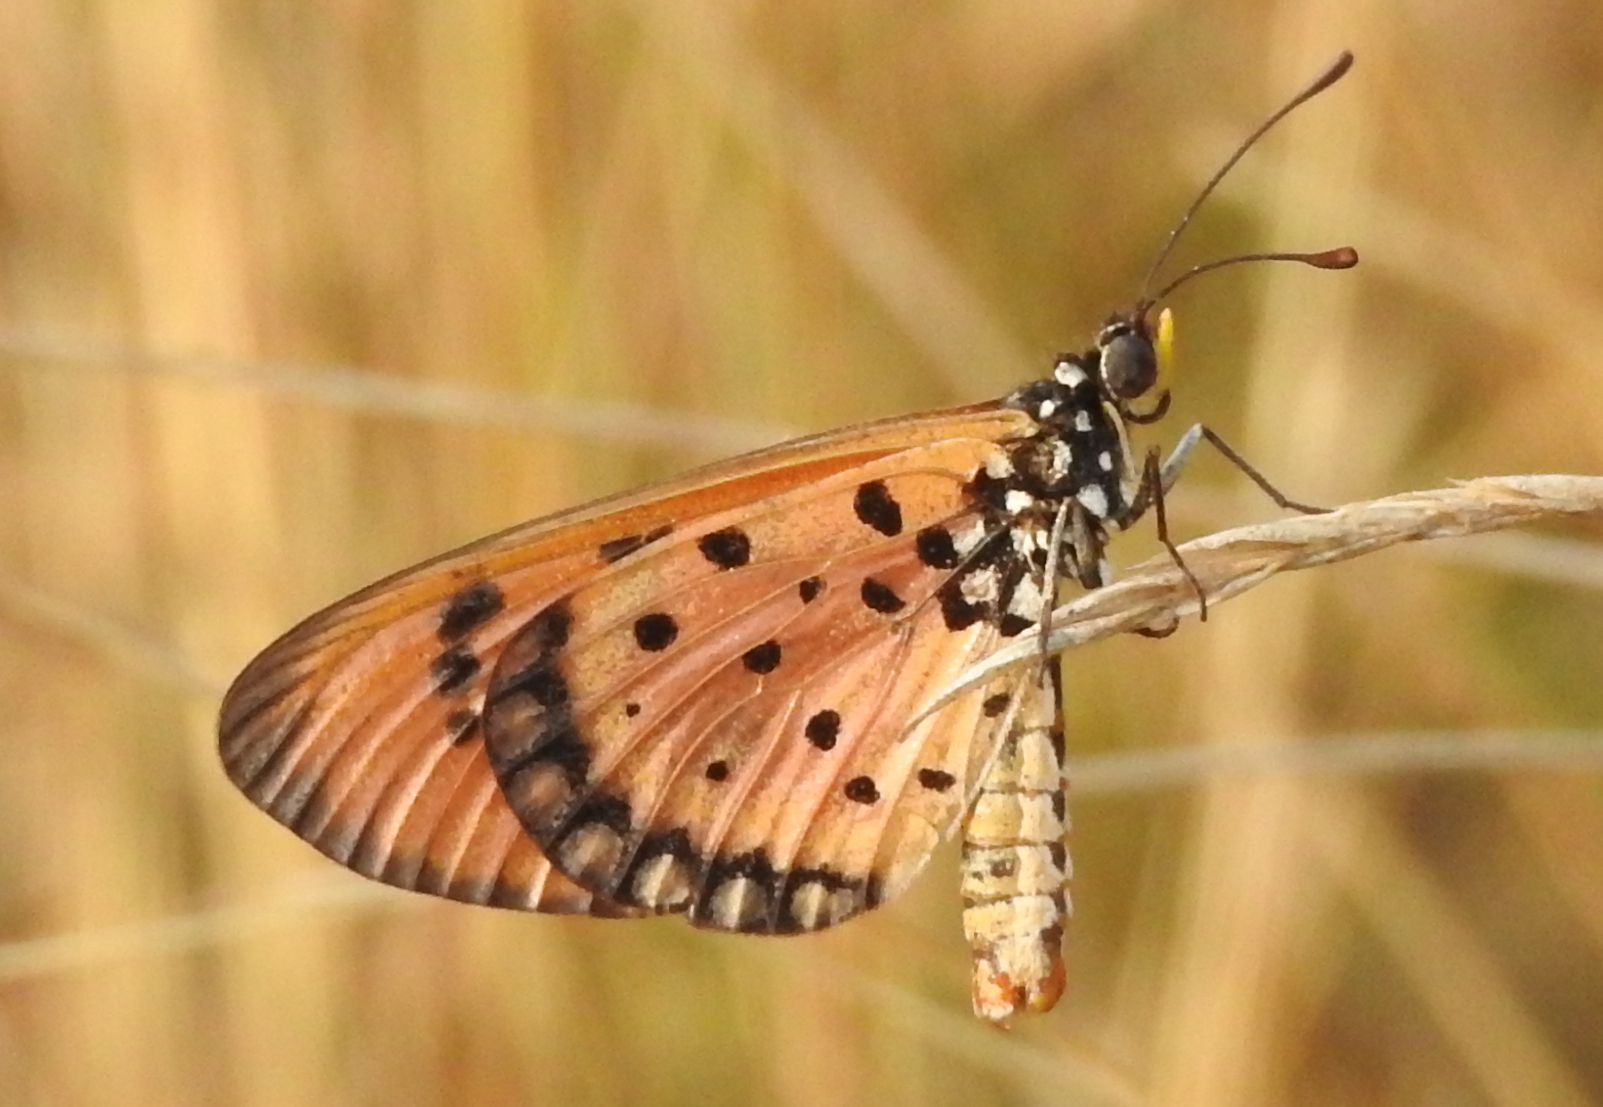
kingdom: Animalia
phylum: Arthropoda
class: Insecta
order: Lepidoptera
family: Nymphalidae
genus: Acraea
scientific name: Acraea terpsicore
